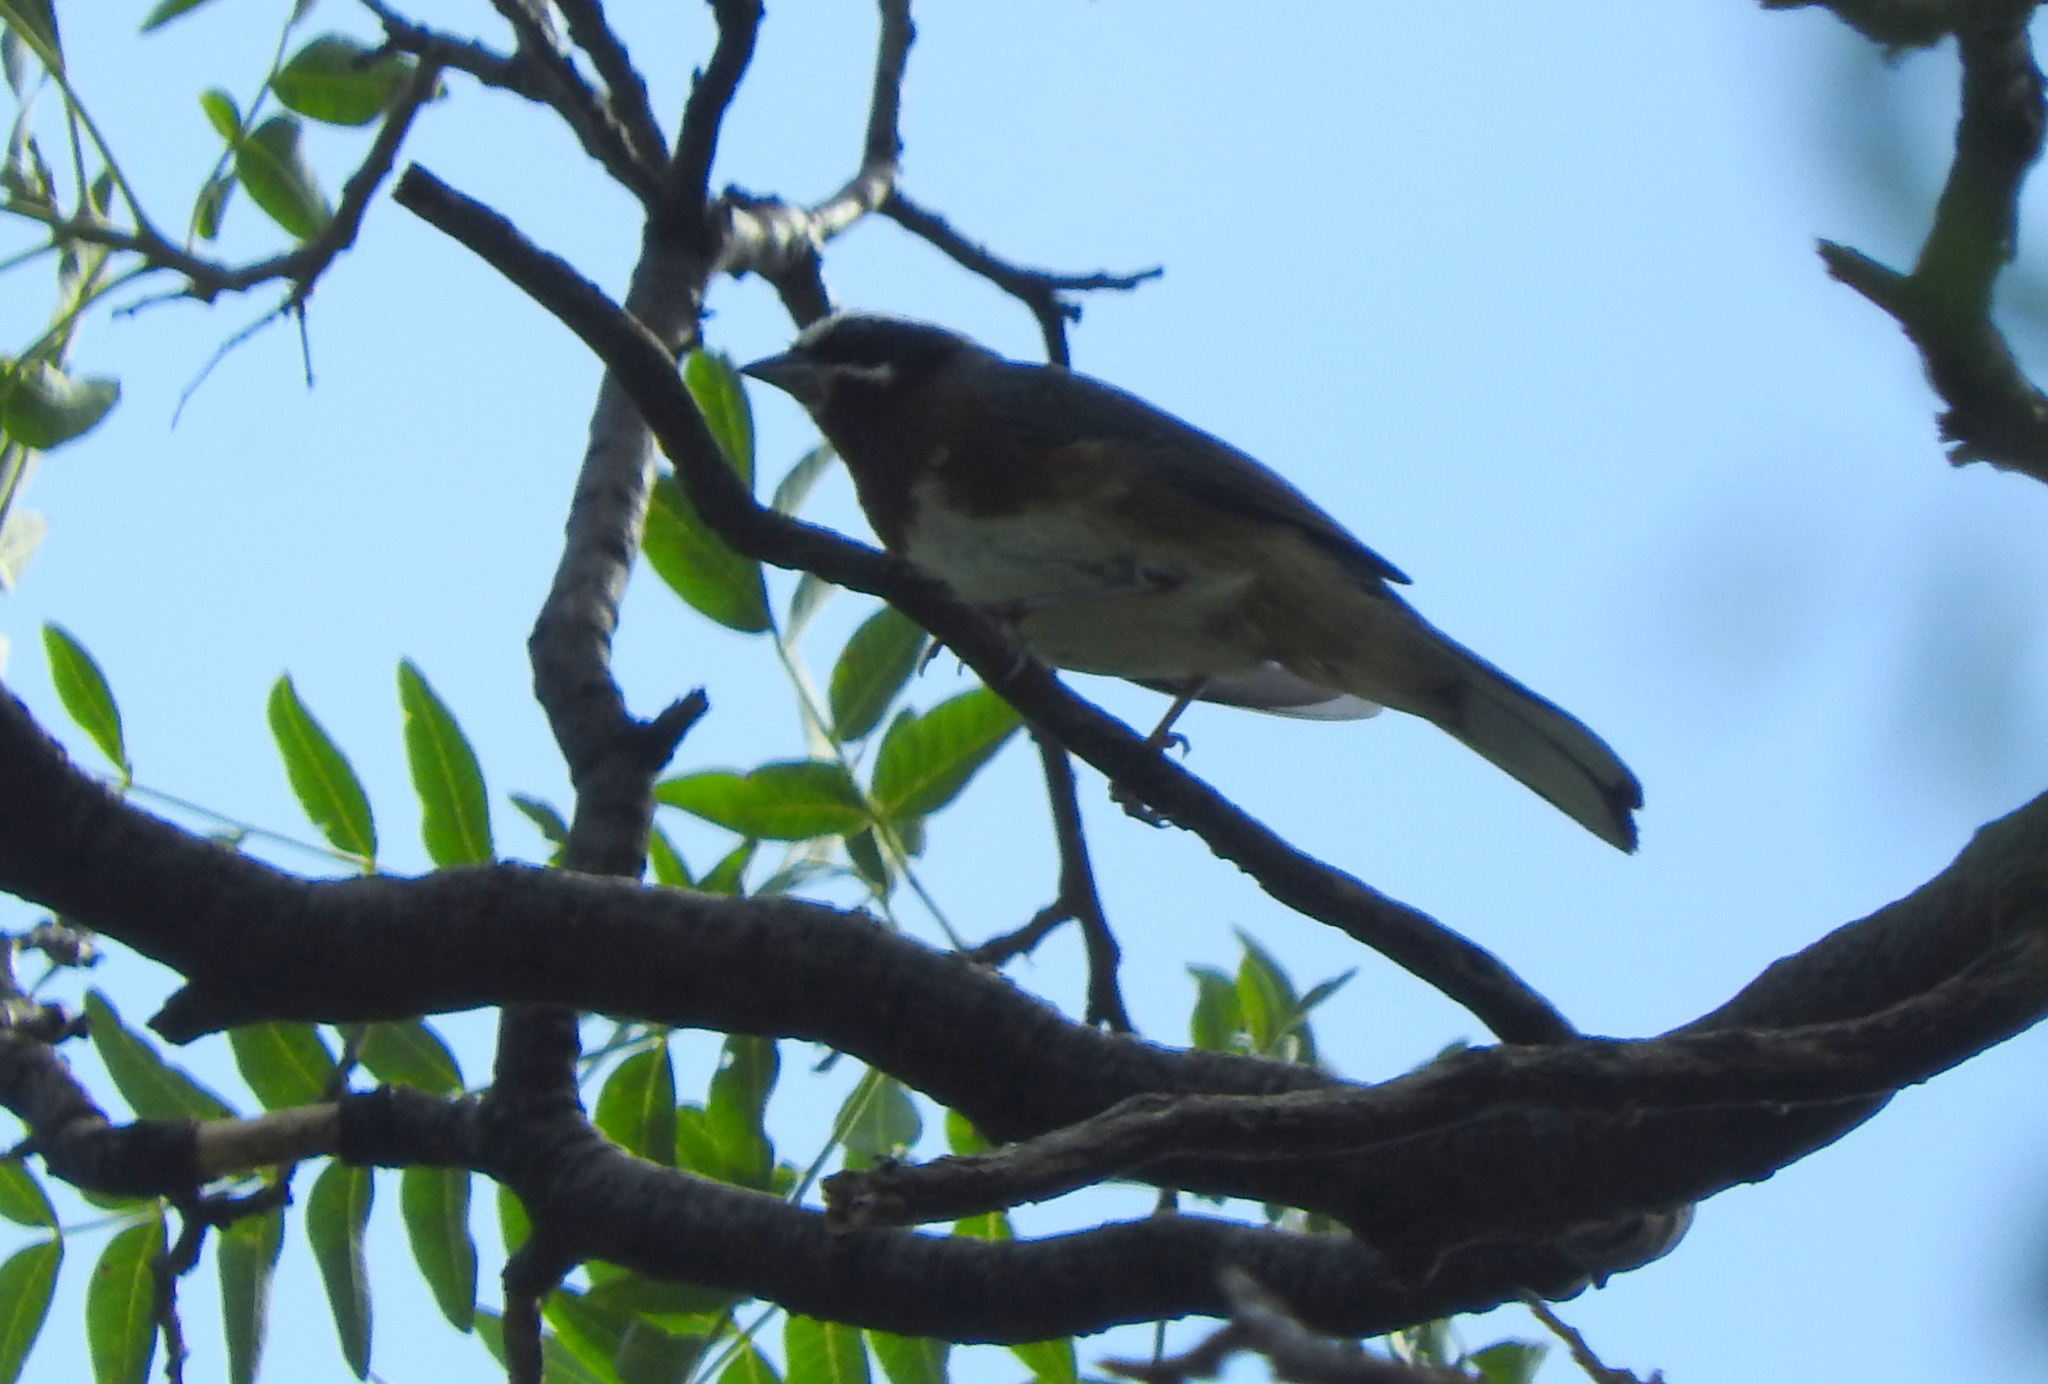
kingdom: Animalia
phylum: Chordata
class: Aves
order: Passeriformes
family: Thraupidae
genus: Poospiza
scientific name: Poospiza whitii
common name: Black-and-chestnut warbling finch
